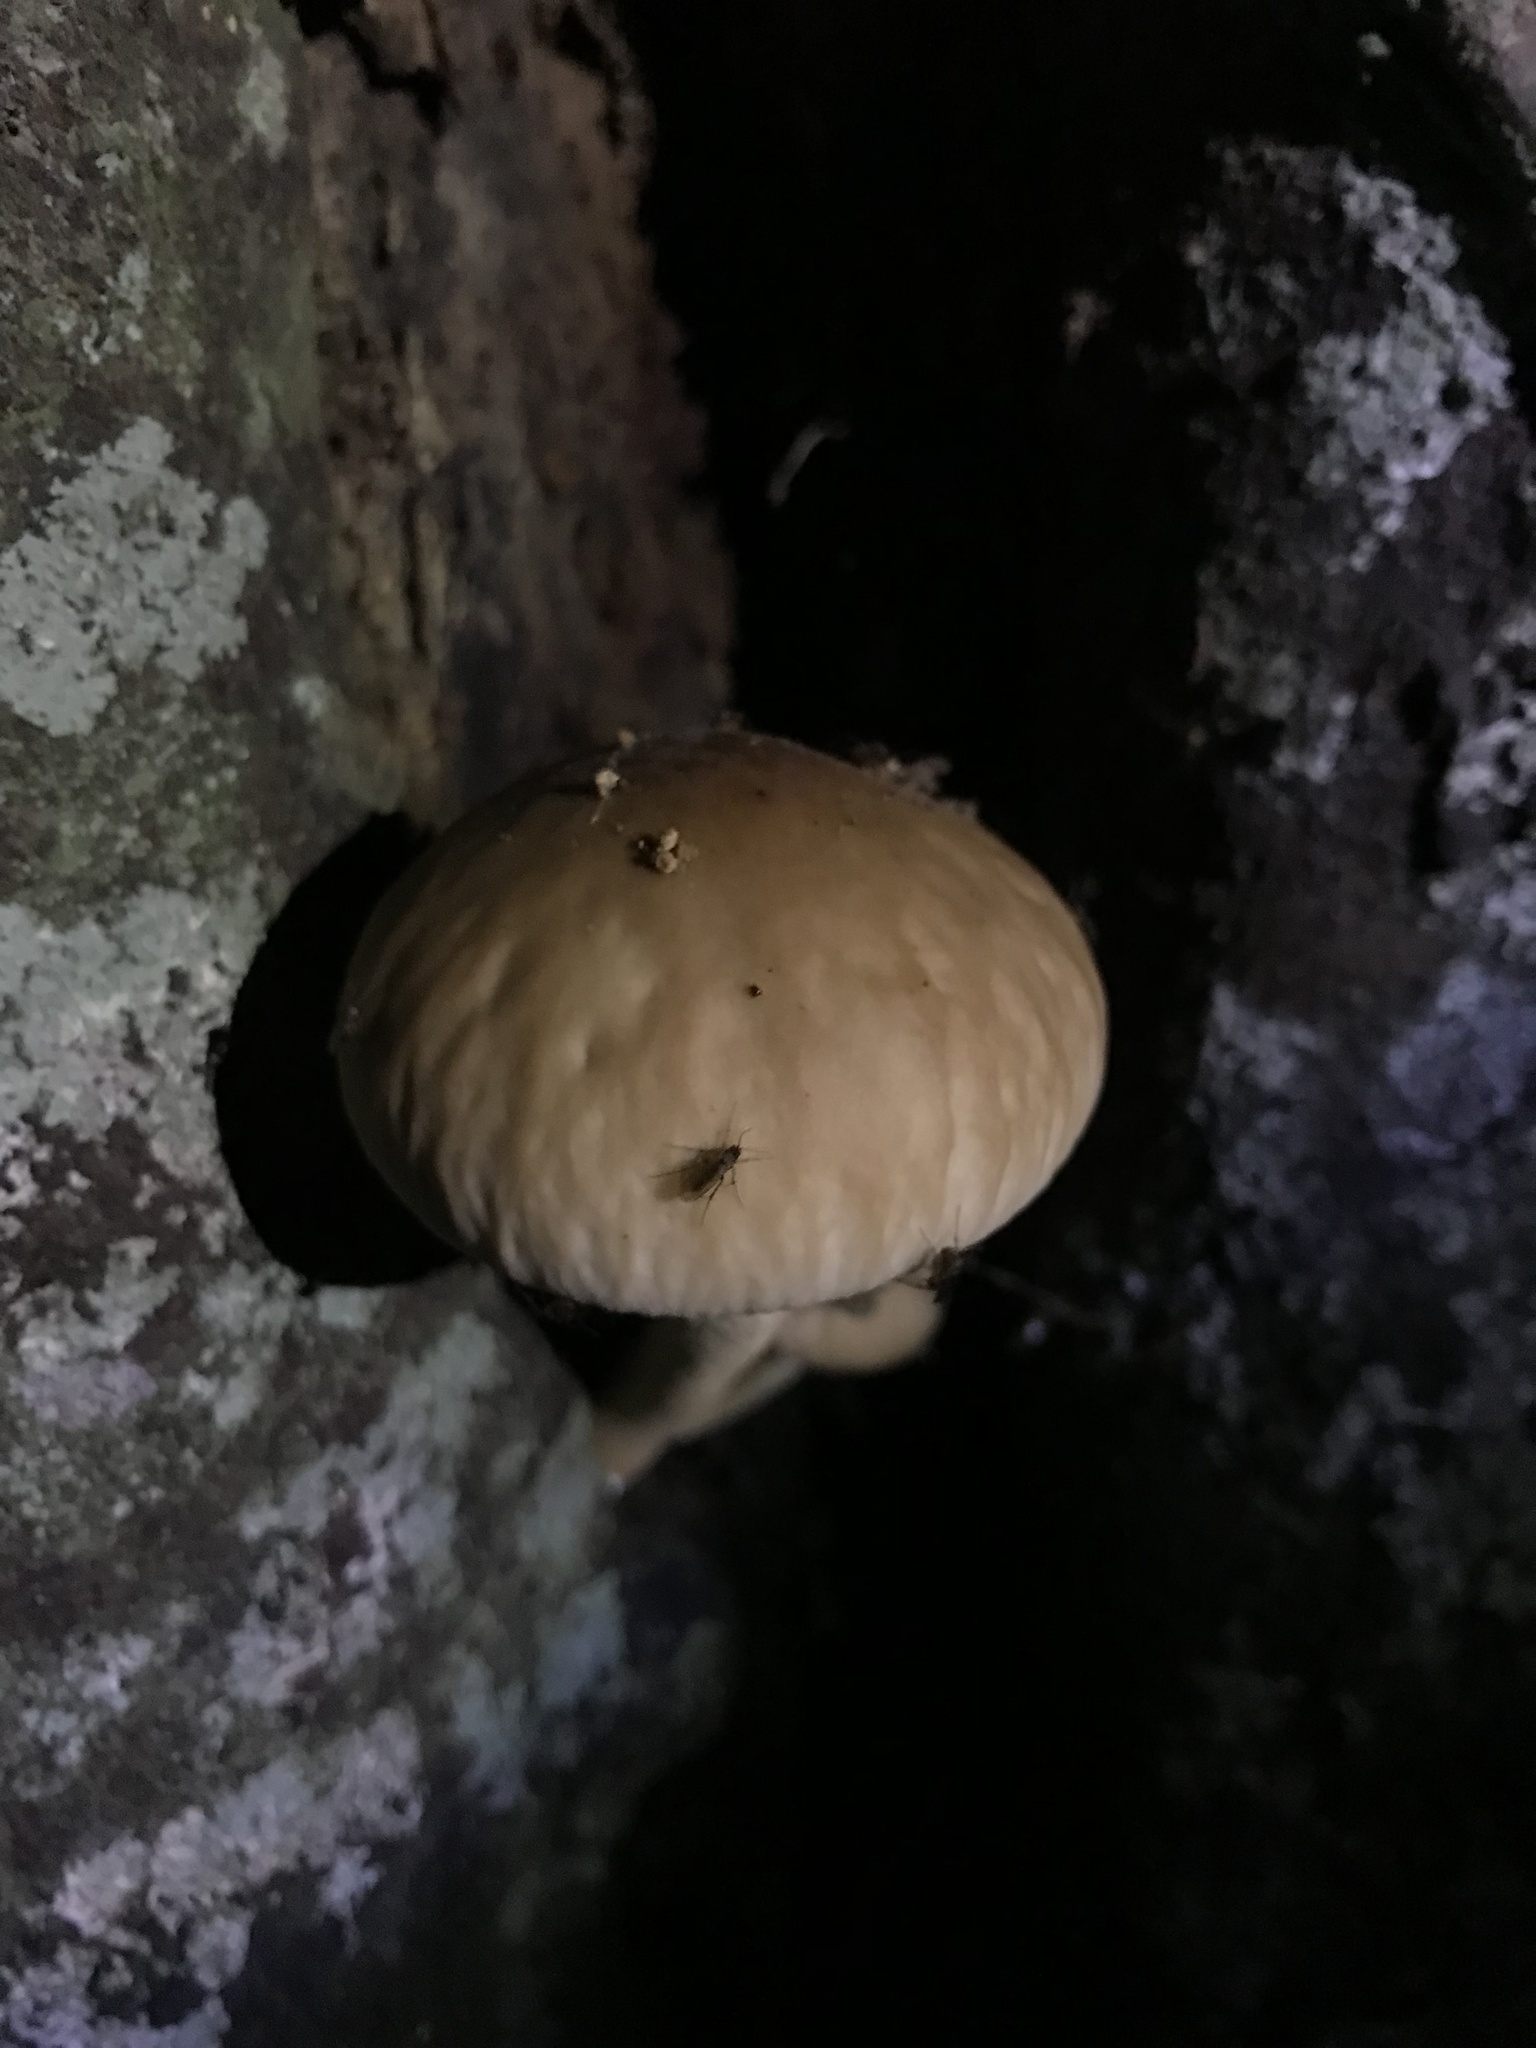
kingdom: Fungi
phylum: Basidiomycota
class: Agaricomycetes
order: Agaricales
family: Tubariaceae
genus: Cyclocybe
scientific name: Cyclocybe parasitica
